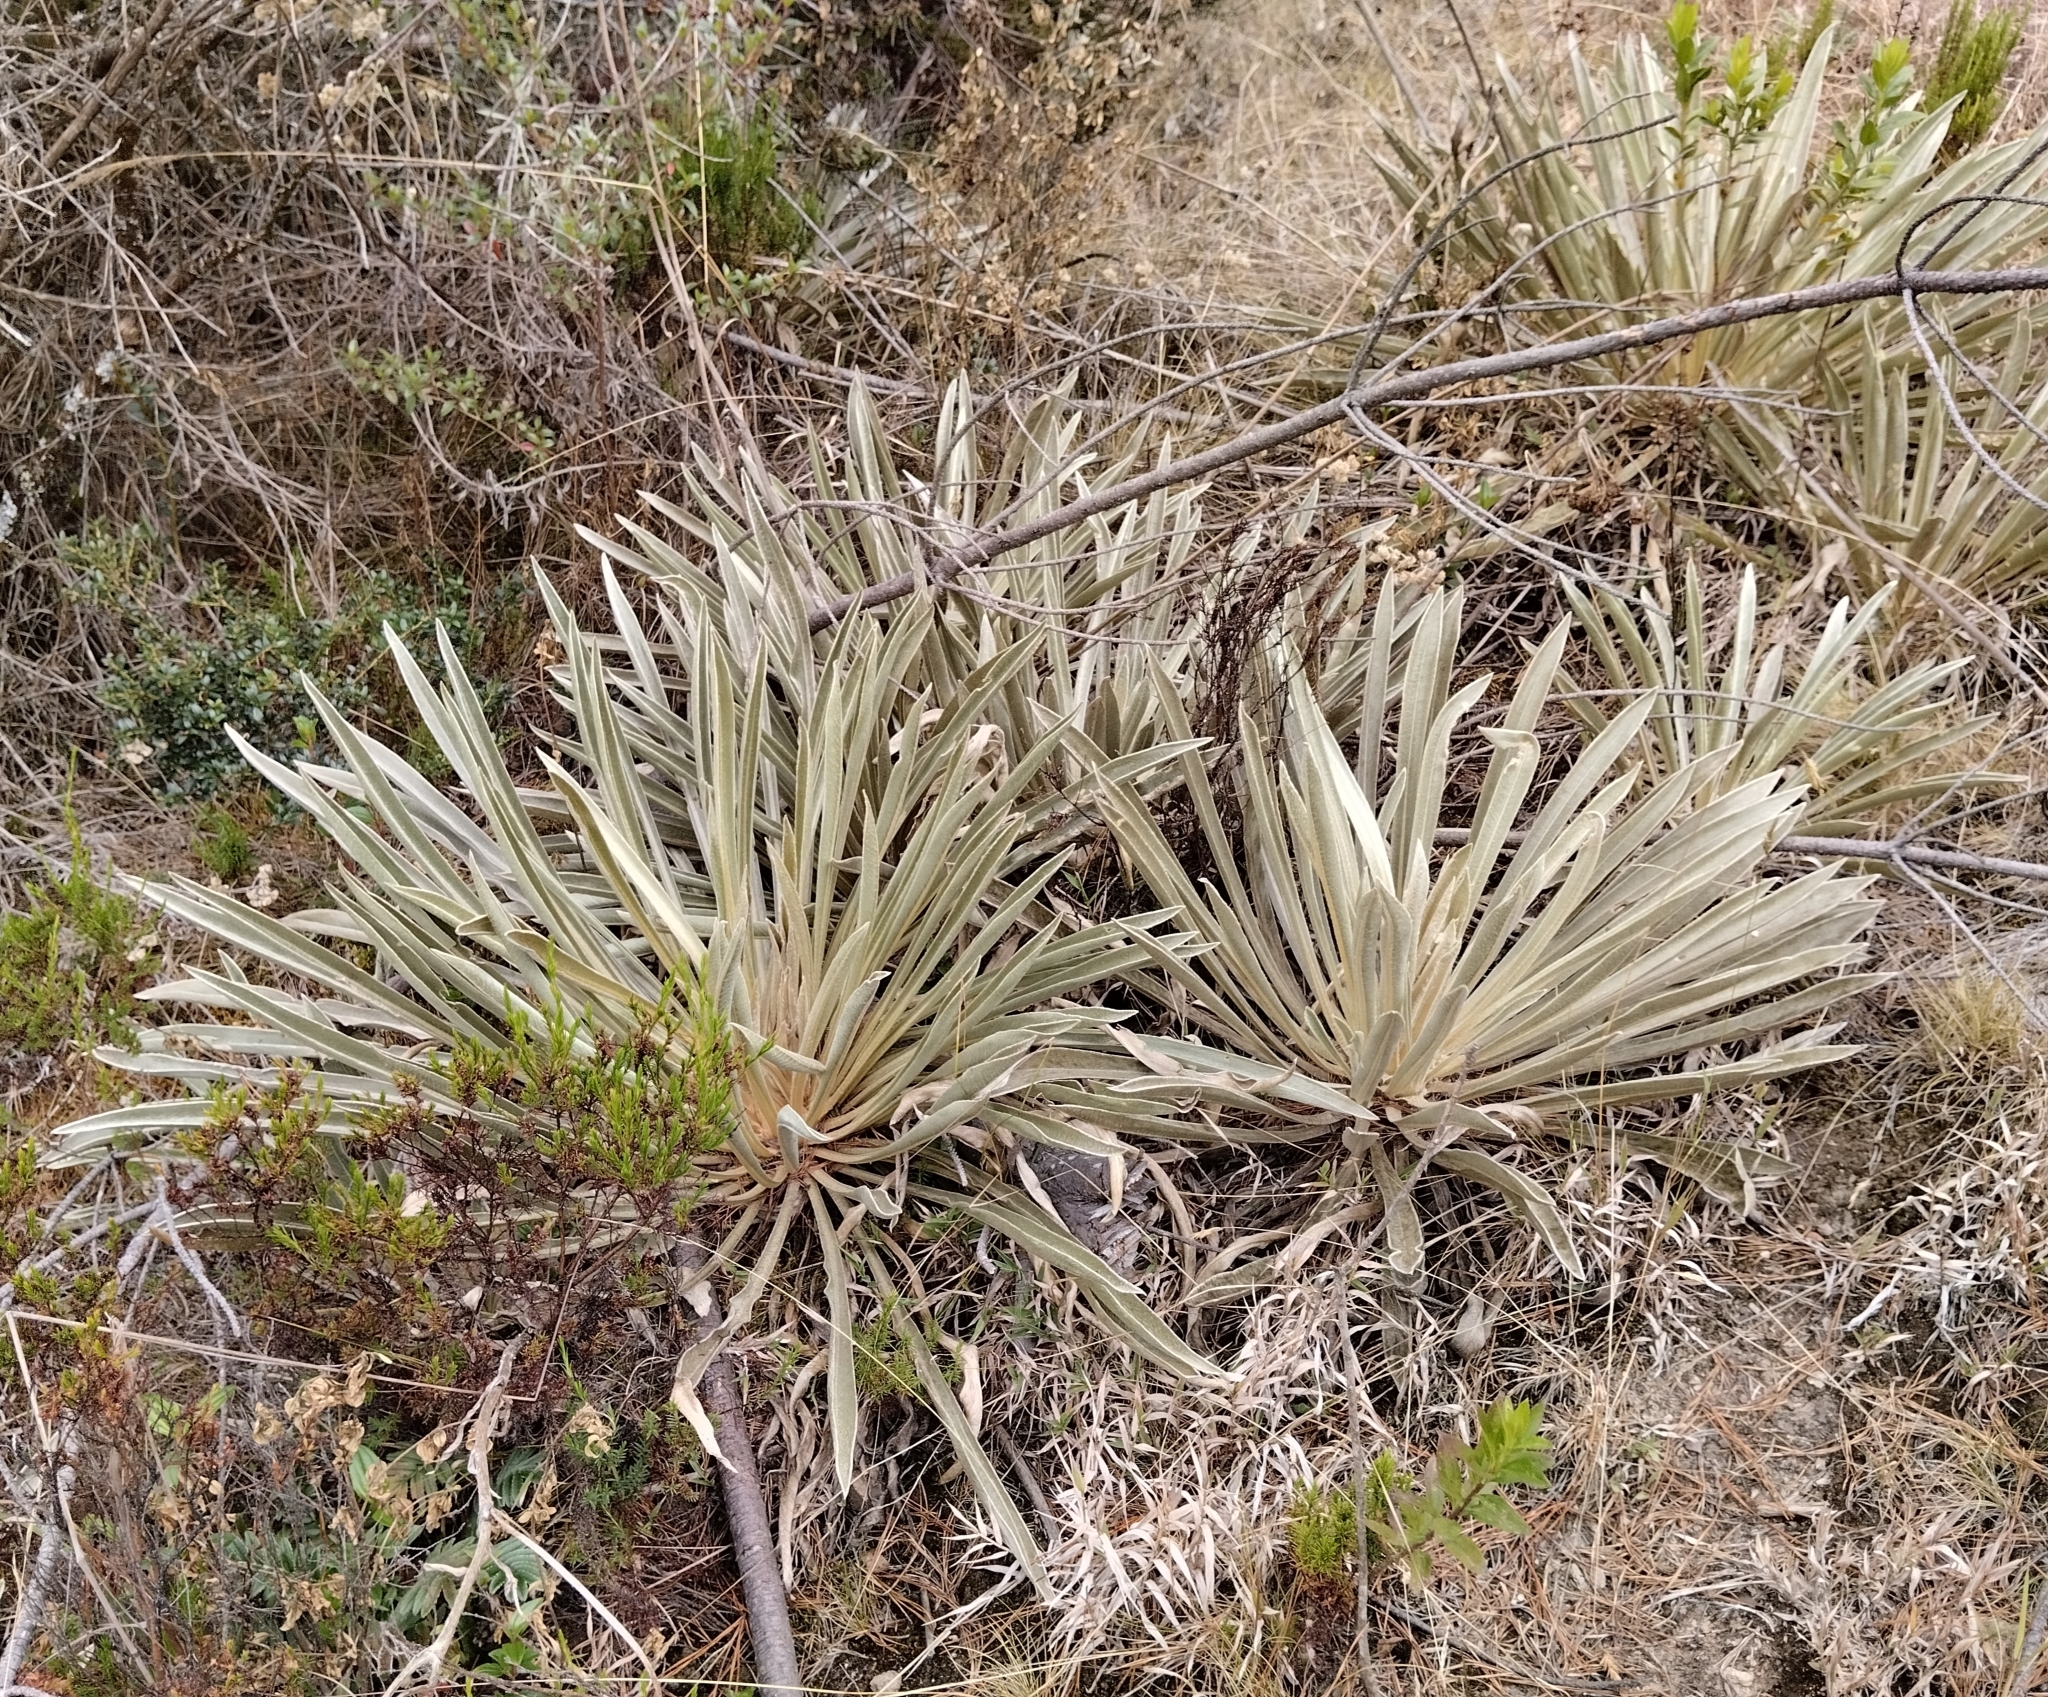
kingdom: Plantae
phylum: Tracheophyta
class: Magnoliopsida
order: Asterales
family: Asteraceae
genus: Espeletia
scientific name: Espeletia boyacensis
